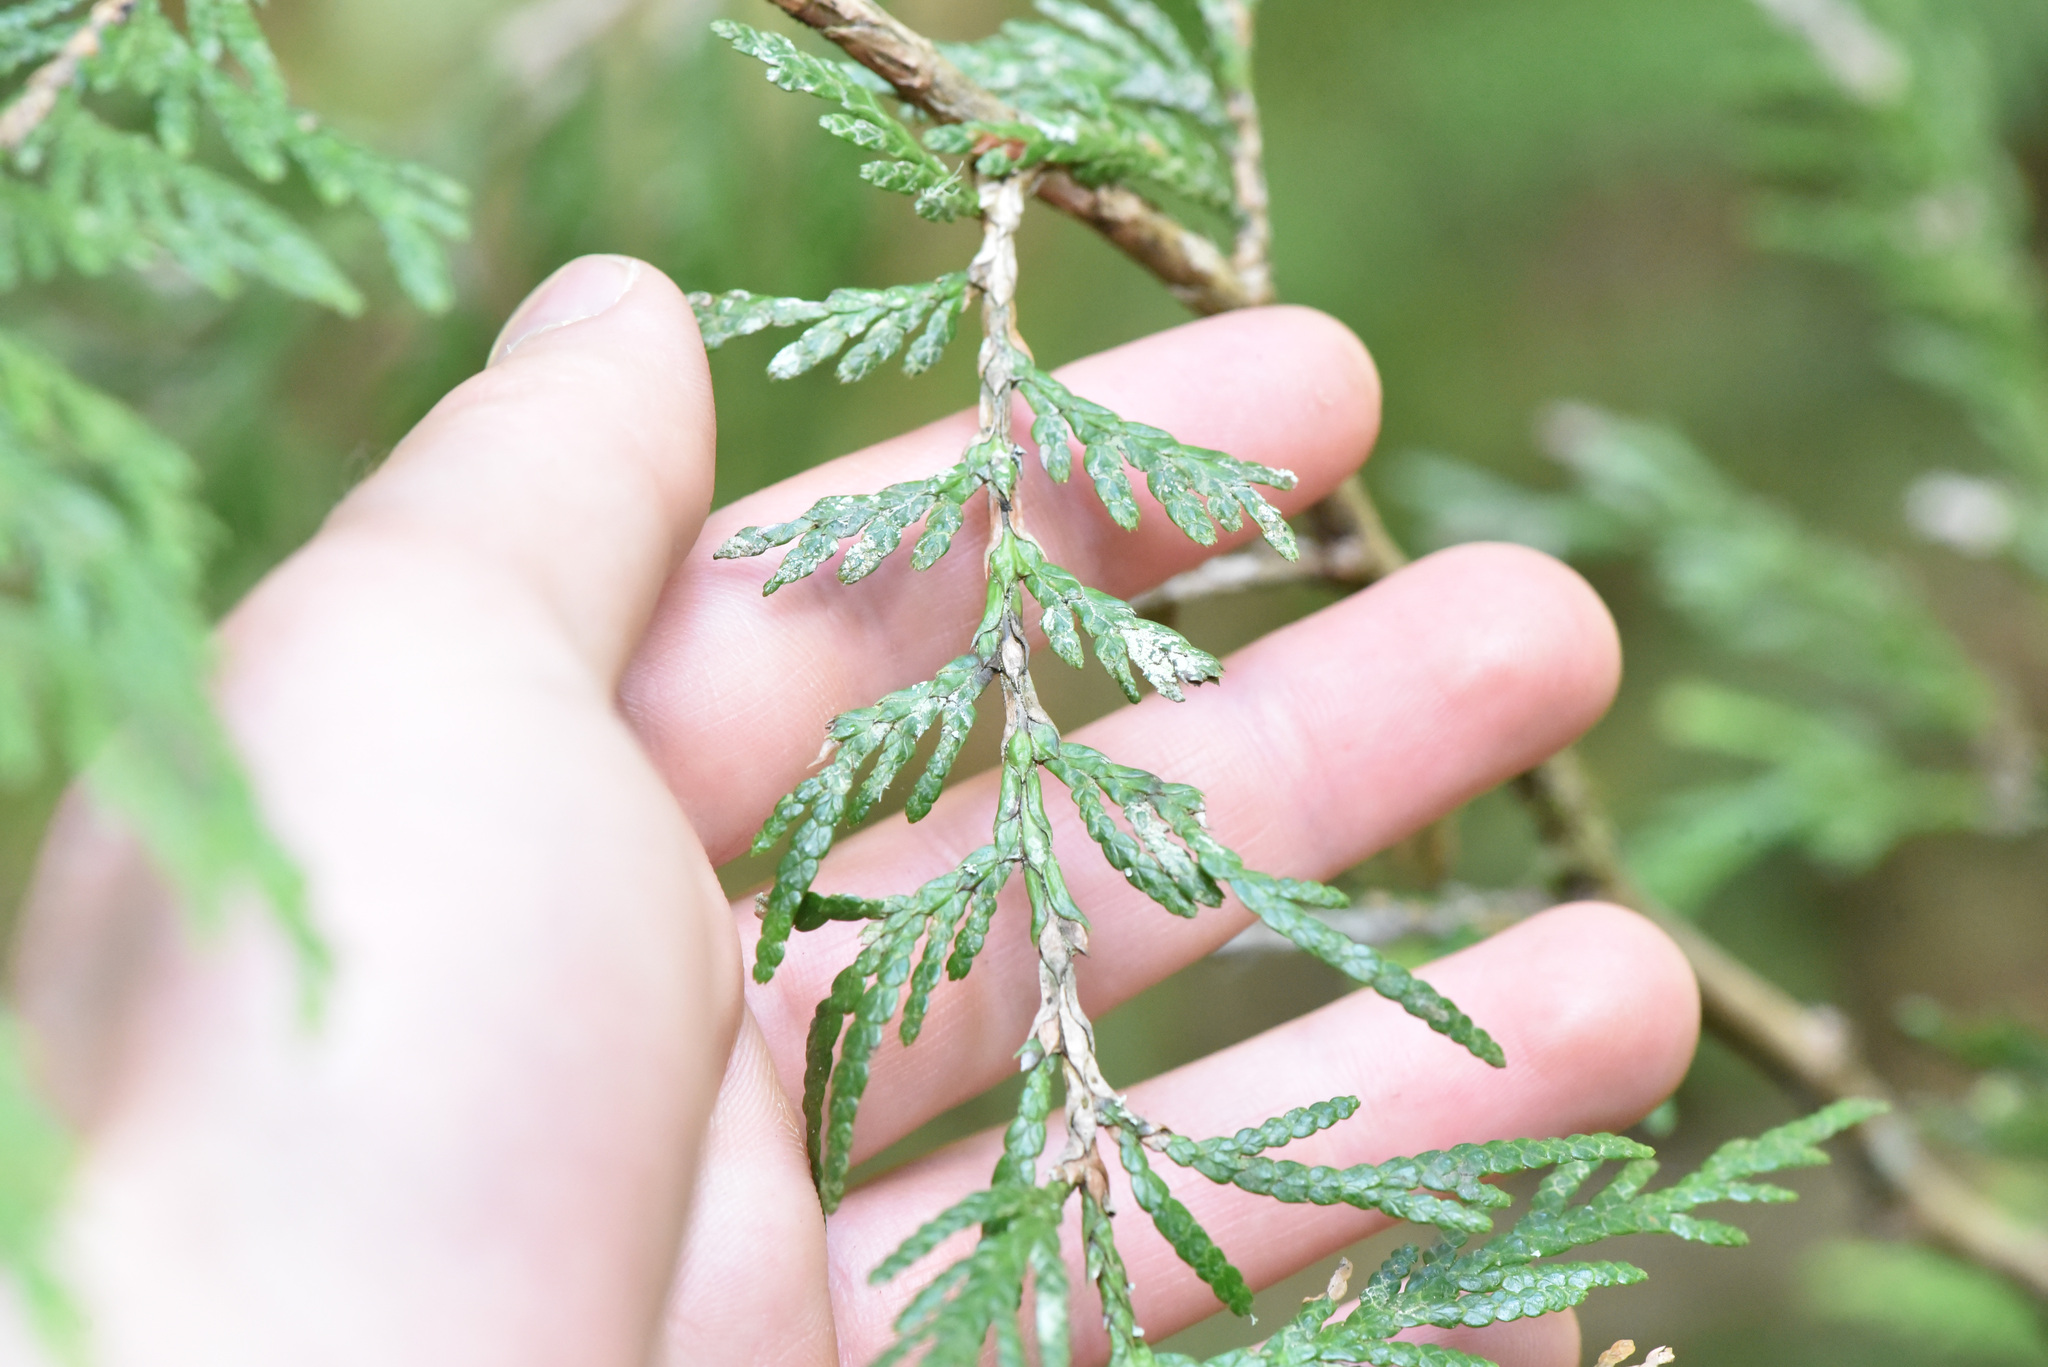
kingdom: Plantae
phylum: Tracheophyta
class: Pinopsida
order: Pinales
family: Cupressaceae
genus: Thuja
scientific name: Thuja plicata
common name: Western red-cedar
